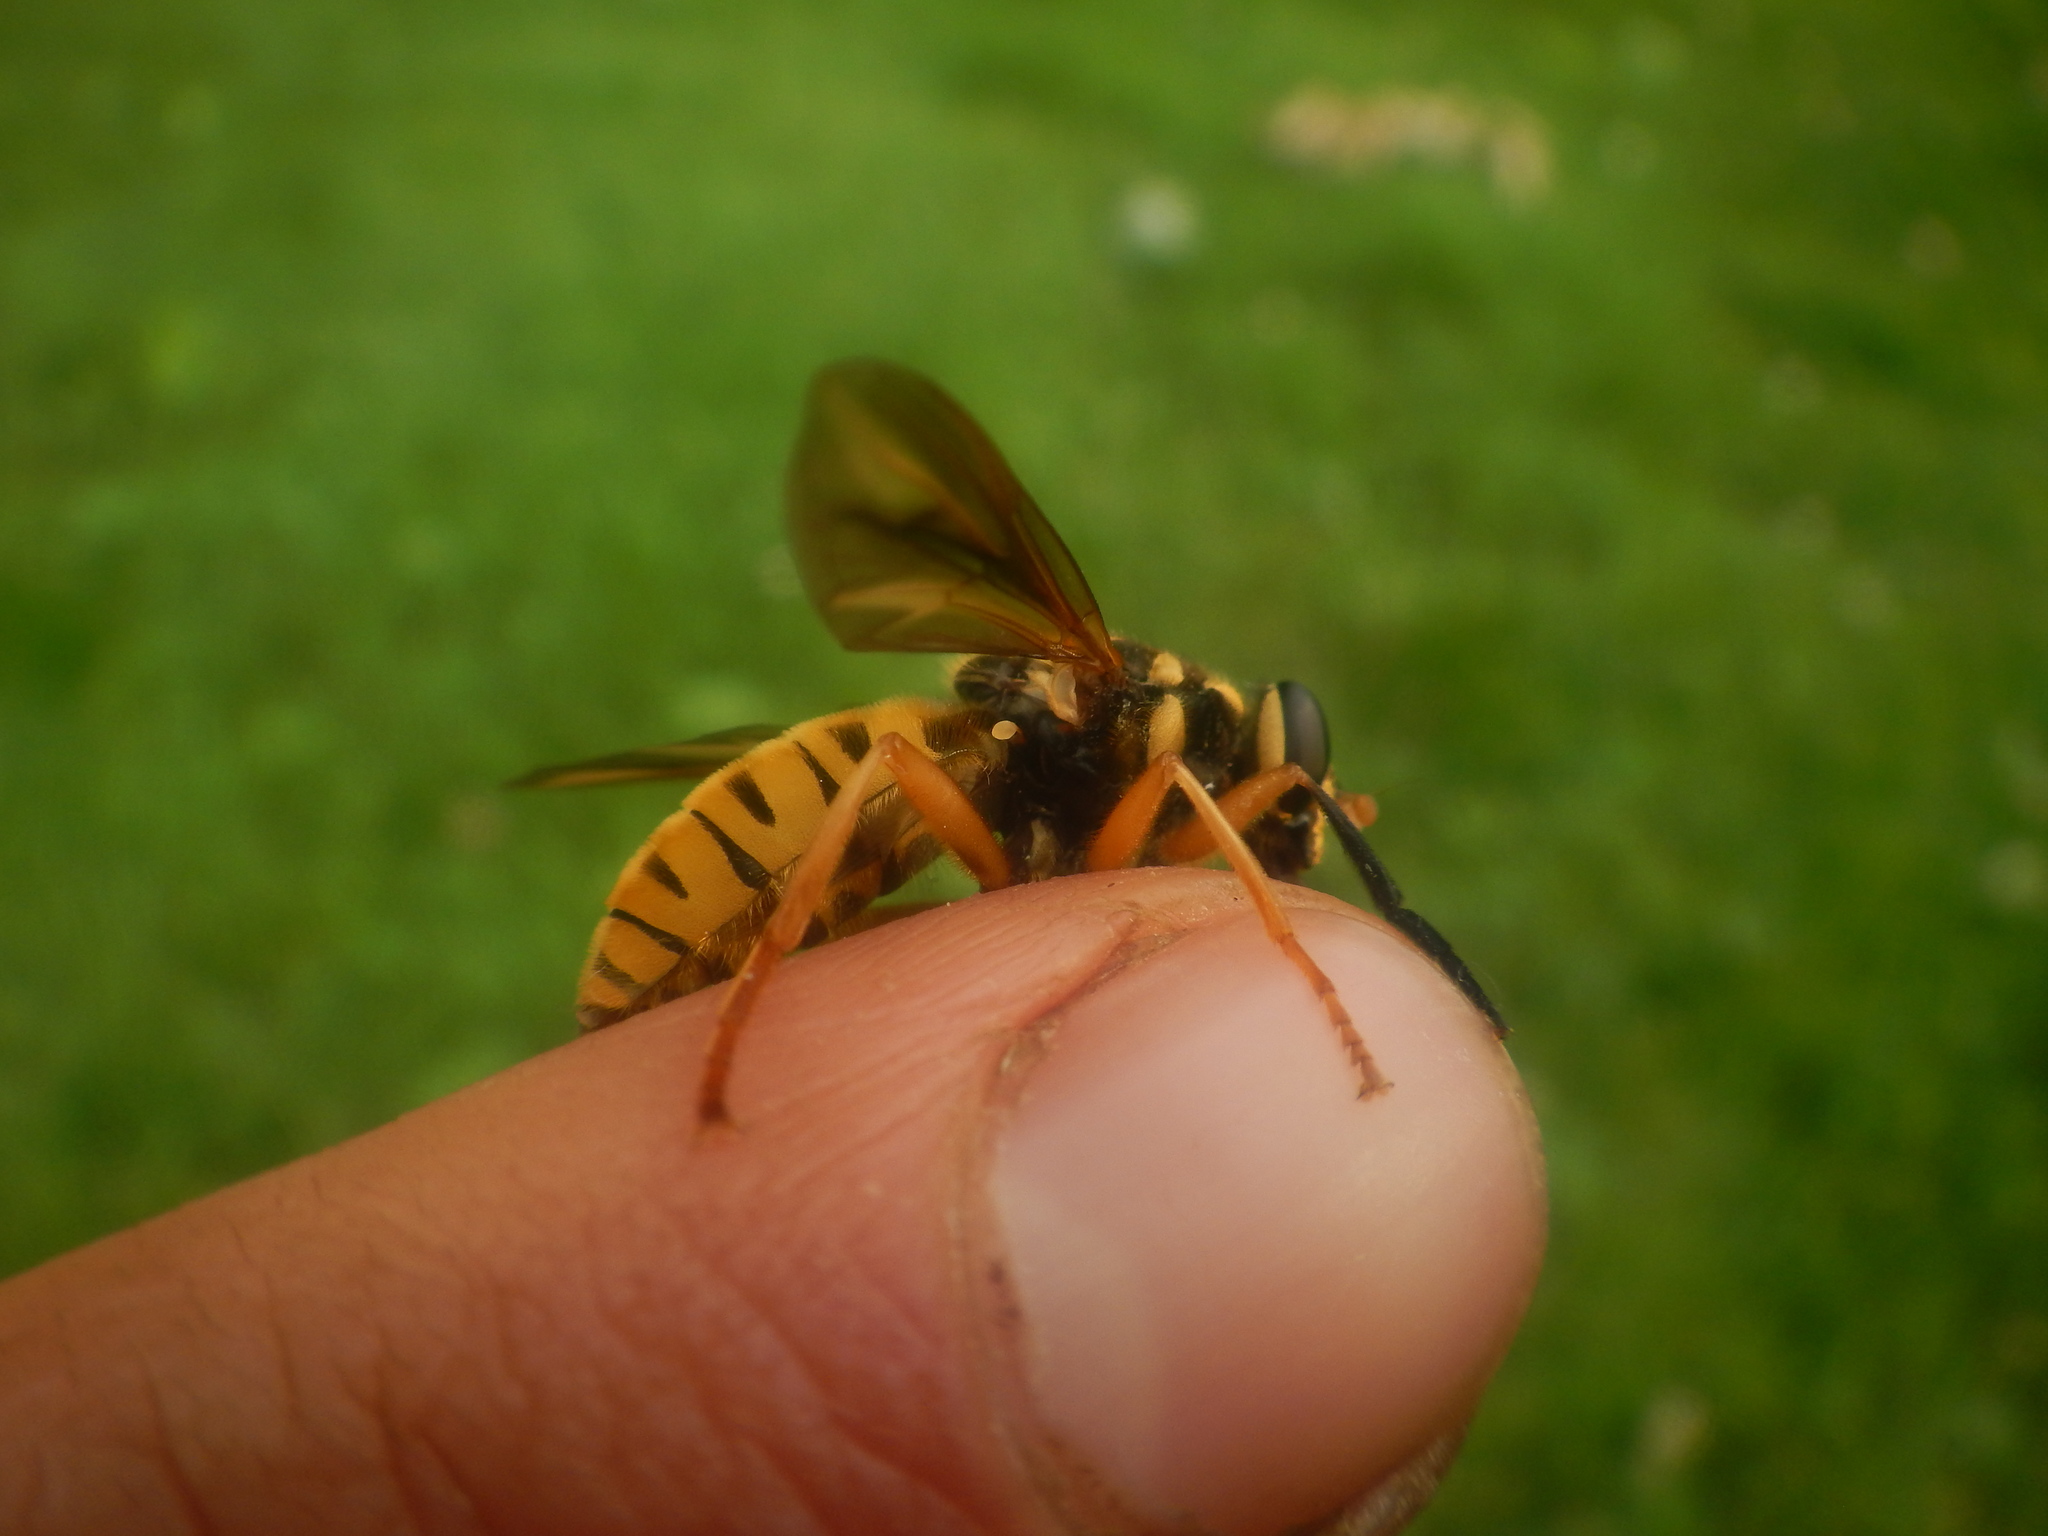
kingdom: Animalia
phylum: Arthropoda
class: Insecta
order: Diptera
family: Syrphidae
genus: Temnostoma
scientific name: Temnostoma excentricum
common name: Black-spotted falsehorn
